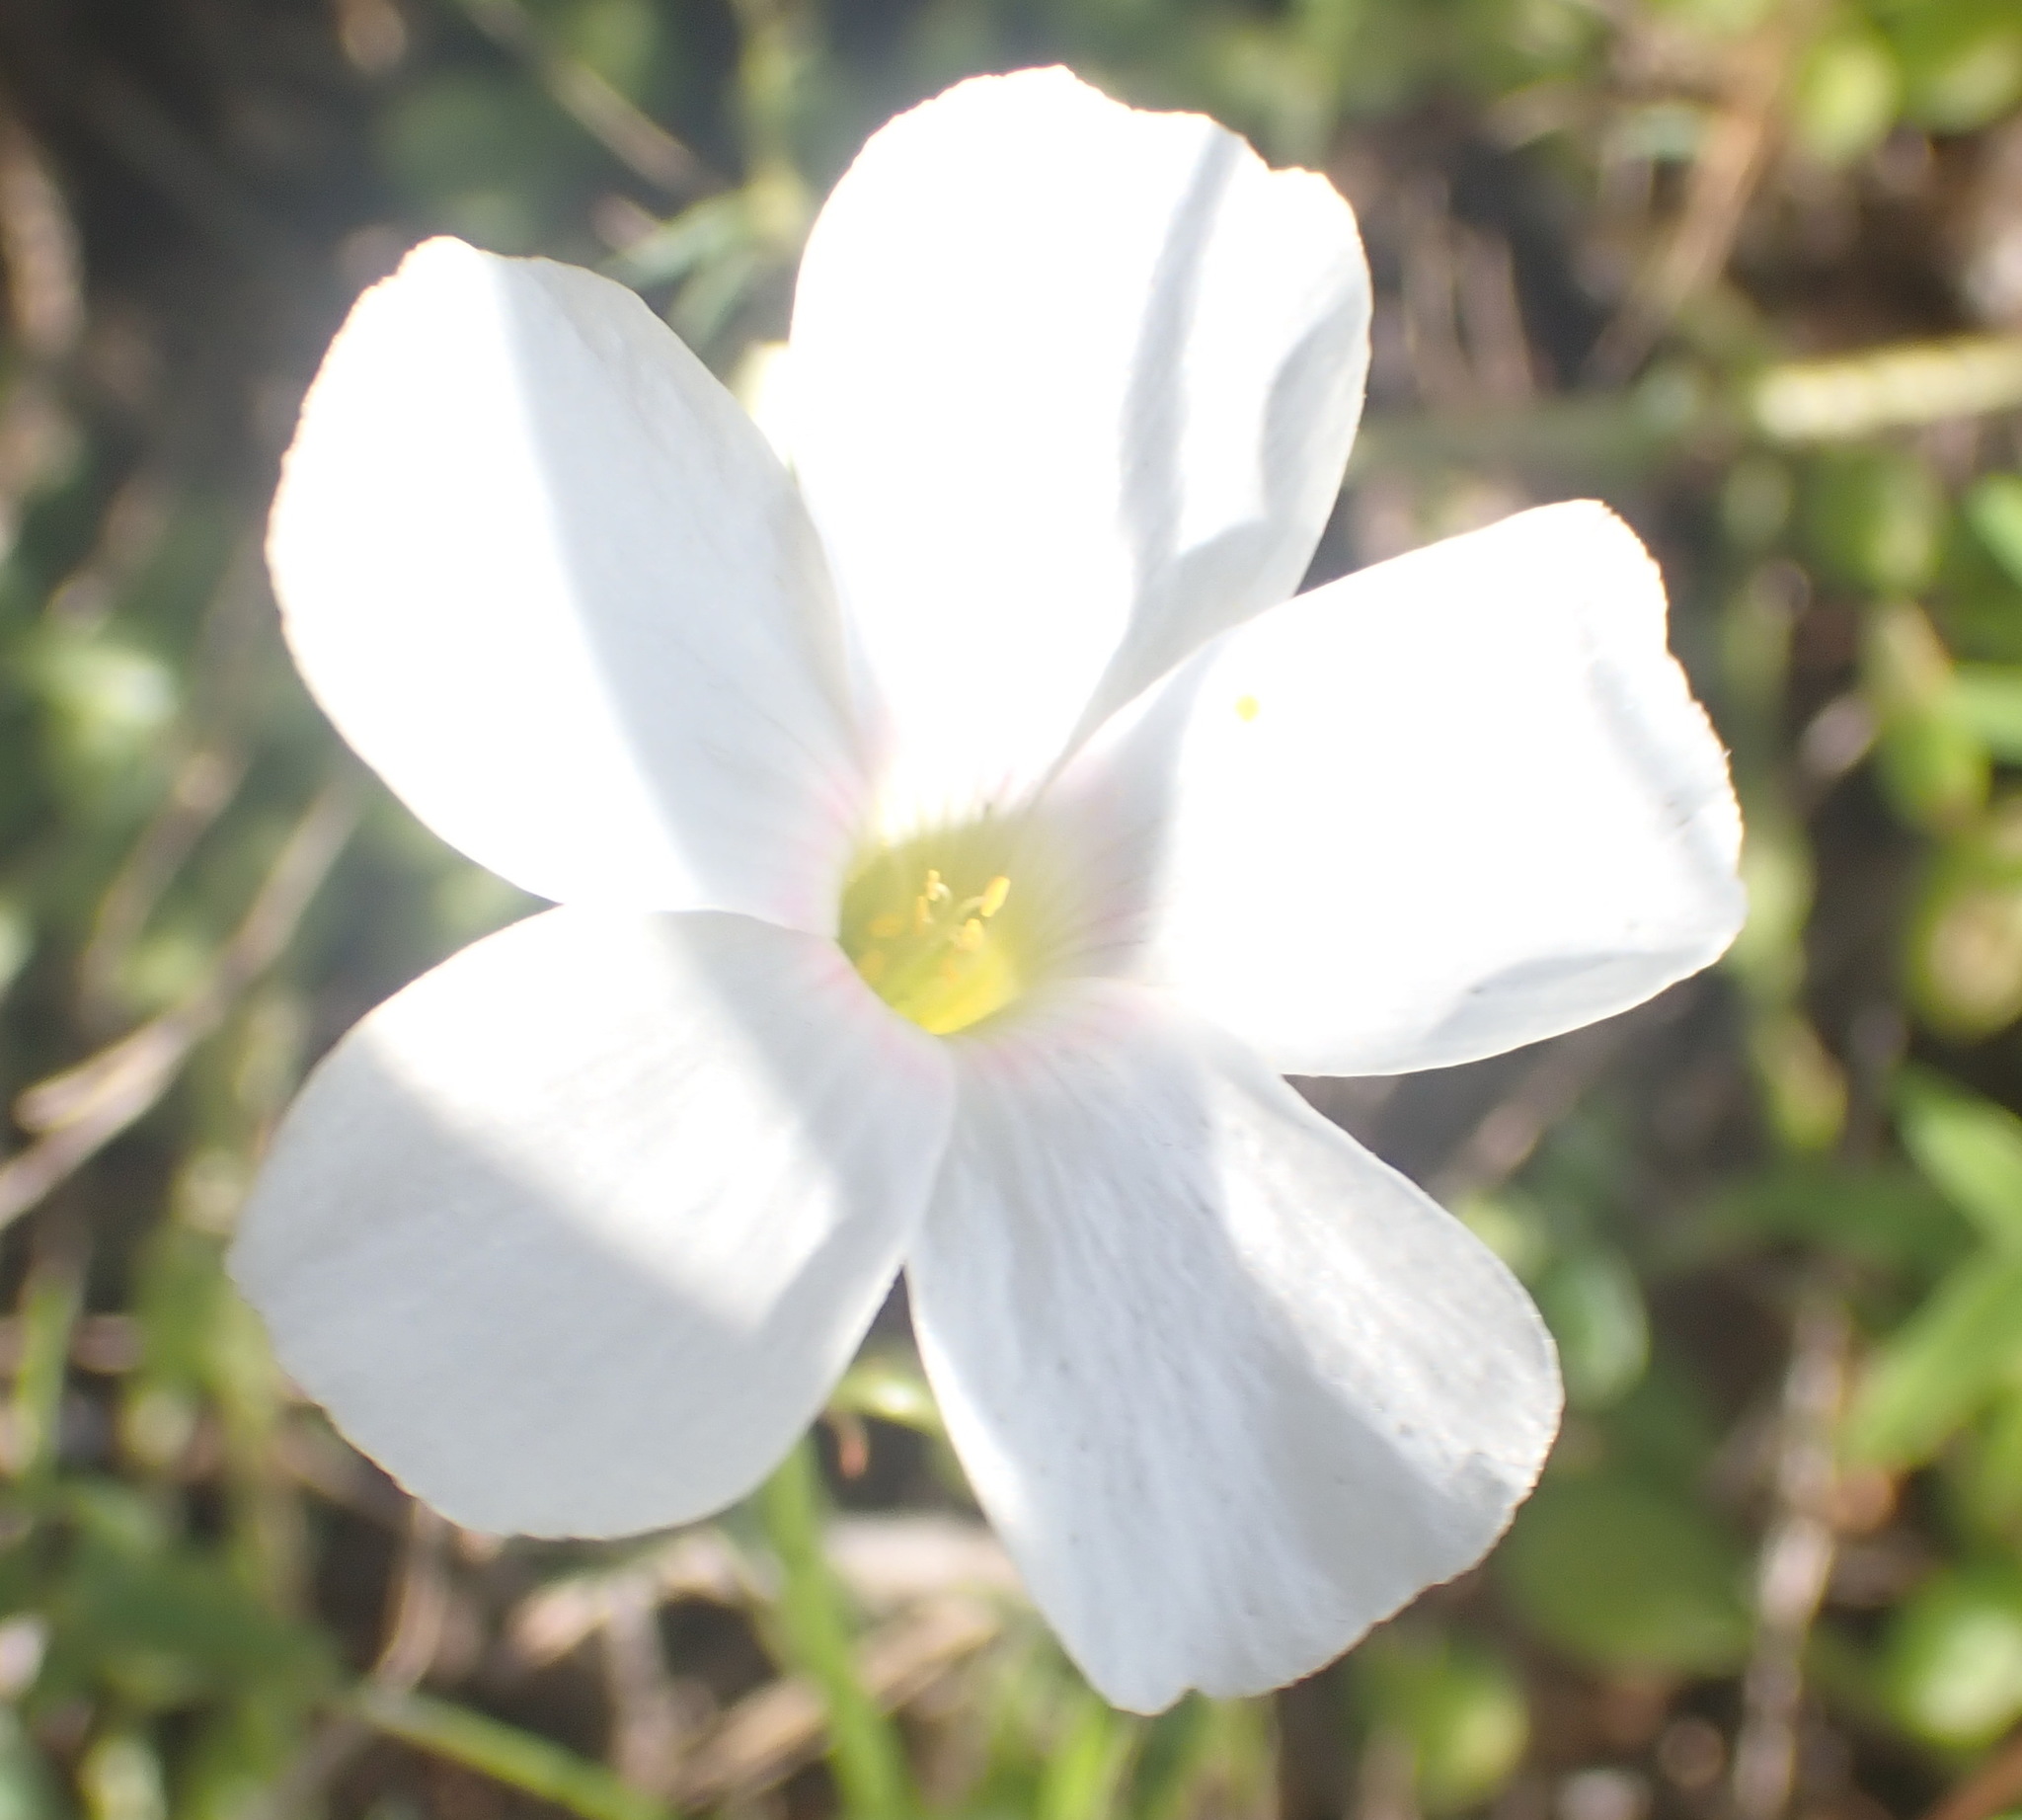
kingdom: Plantae
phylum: Tracheophyta
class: Magnoliopsida
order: Oxalidales
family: Oxalidaceae
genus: Oxalis
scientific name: Oxalis stellata
